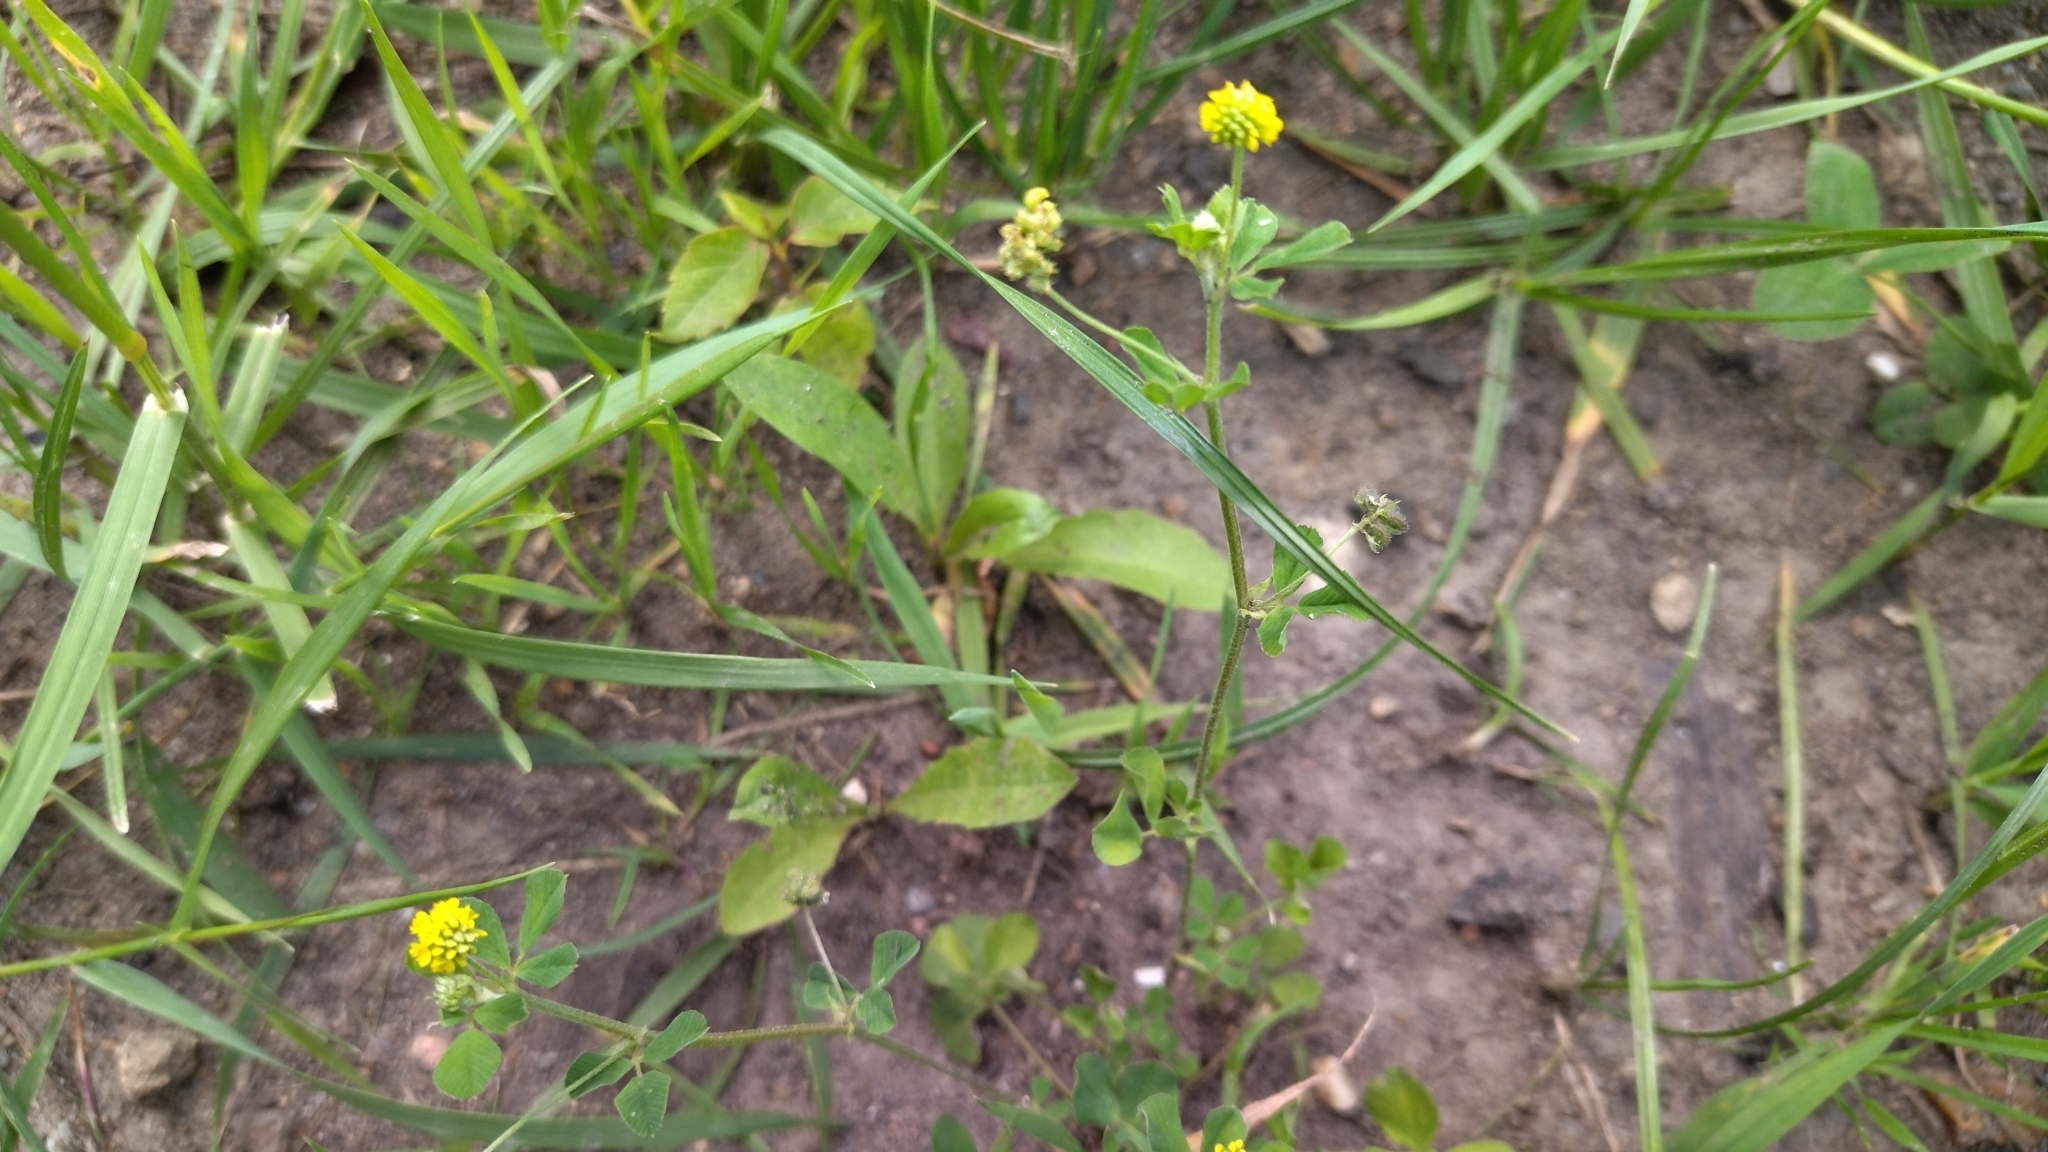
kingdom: Plantae
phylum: Tracheophyta
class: Magnoliopsida
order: Fabales
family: Fabaceae
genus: Medicago
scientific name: Medicago lupulina
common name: Black medick
